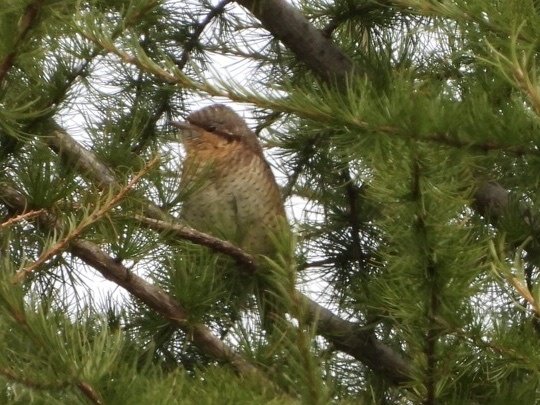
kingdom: Animalia
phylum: Chordata
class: Aves
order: Piciformes
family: Picidae
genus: Jynx
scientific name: Jynx torquilla
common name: Eurasian wryneck
